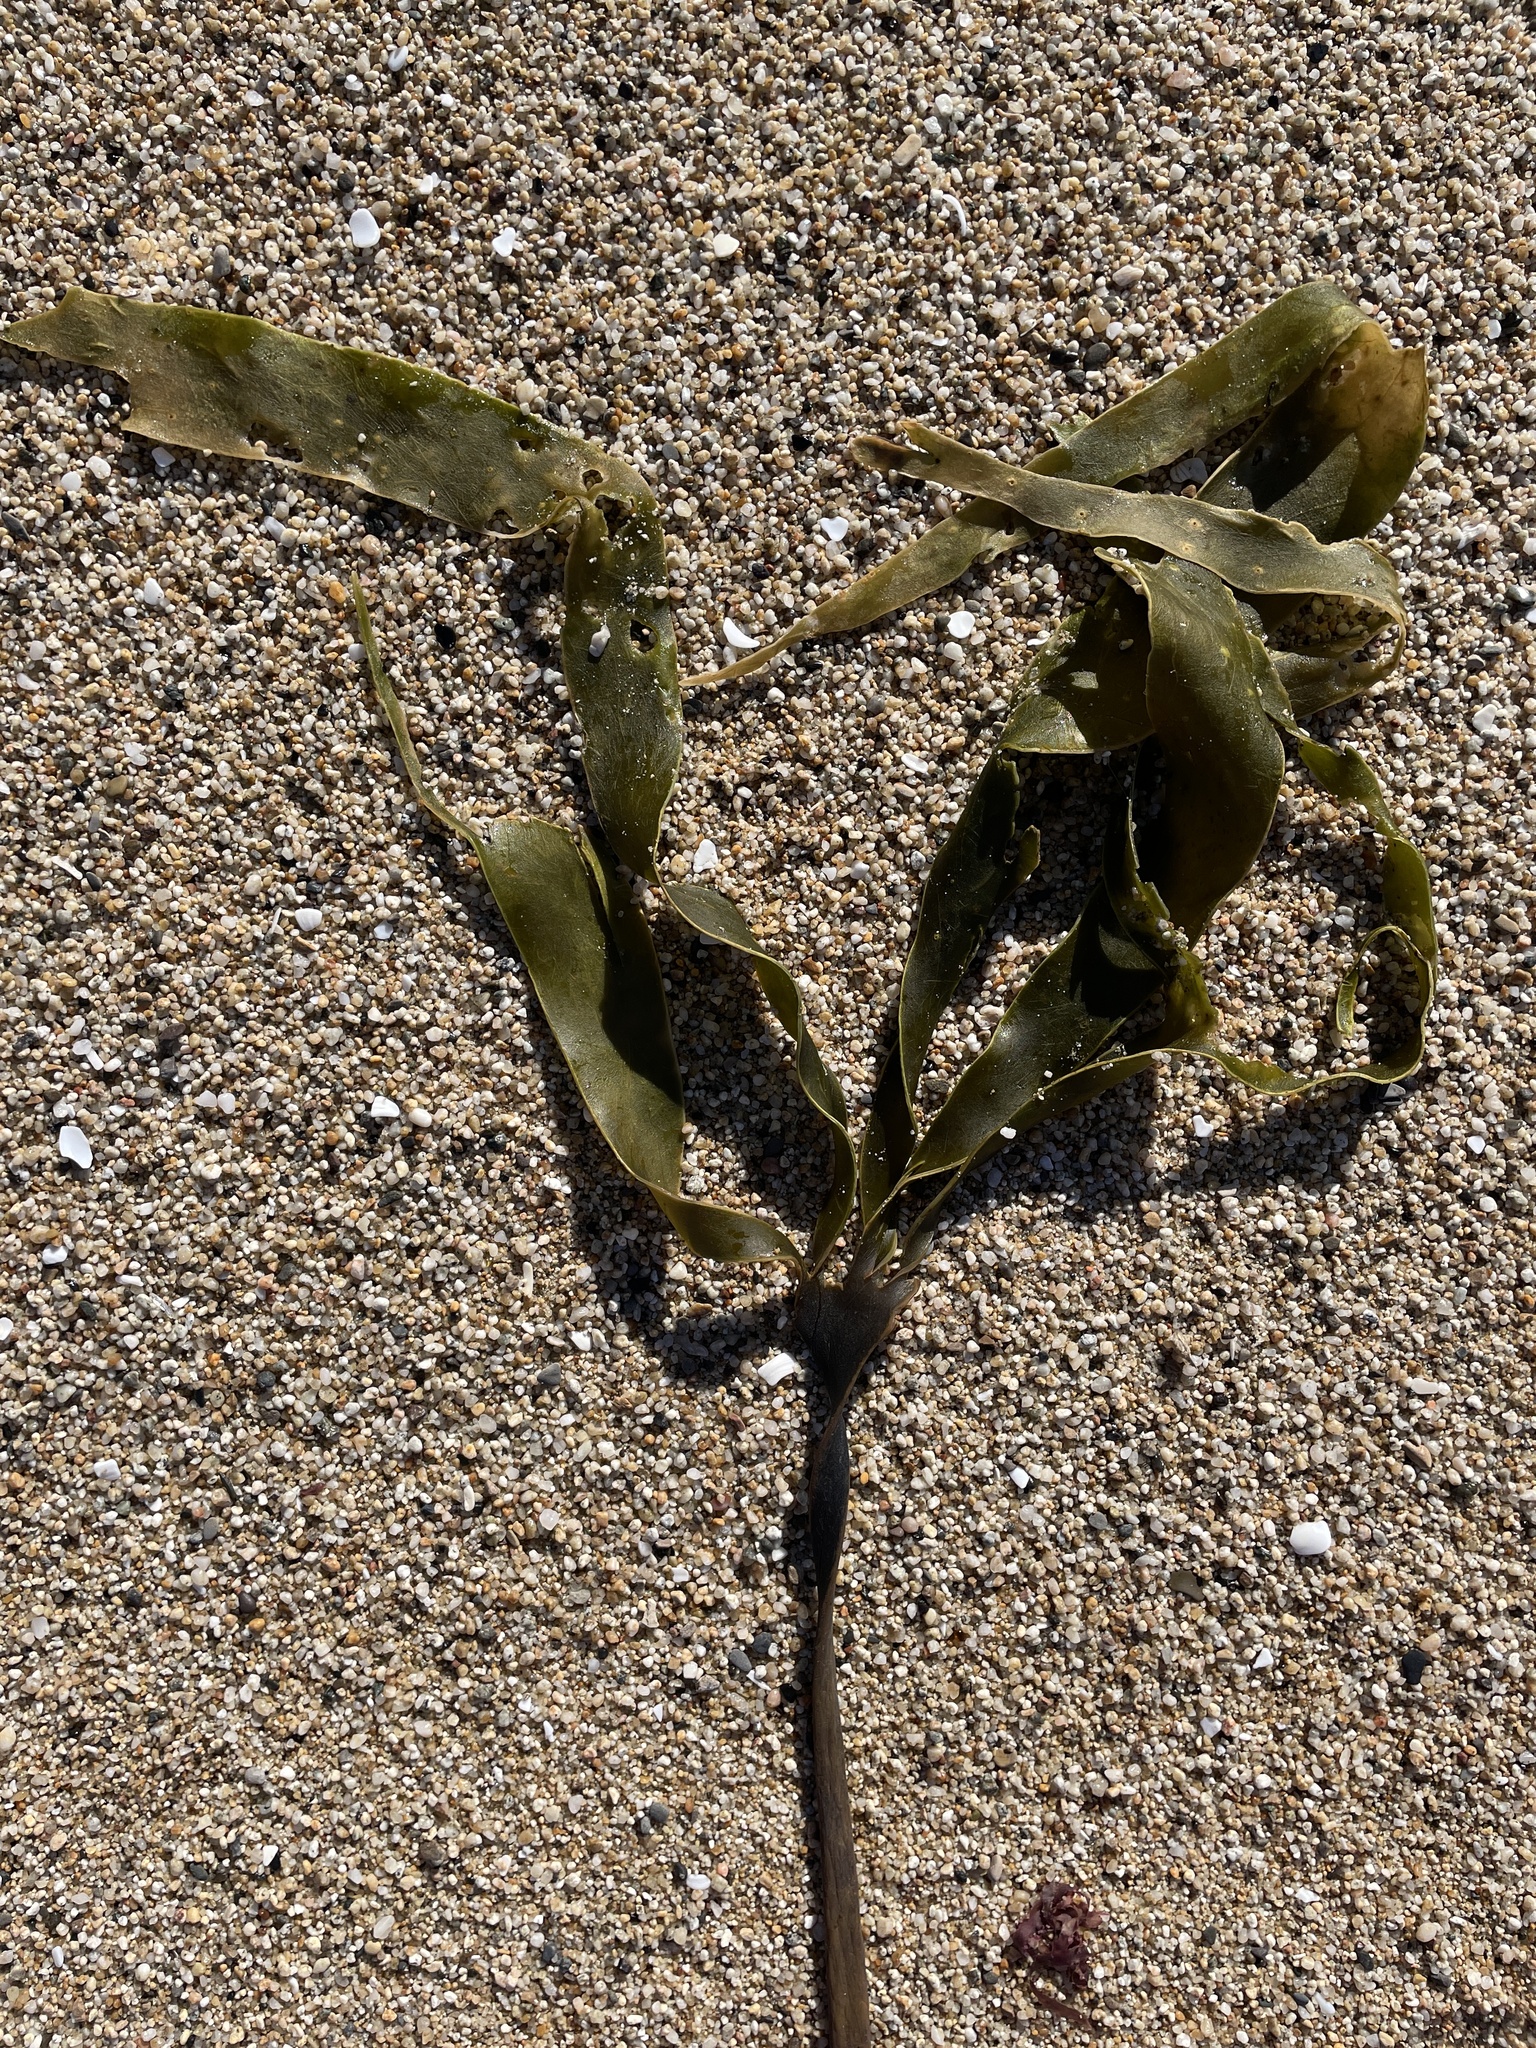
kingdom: Chromista
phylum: Ochrophyta
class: Phaeophyceae
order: Laminariales
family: Laminariaceae
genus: Laminaria
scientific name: Laminaria setchellii
